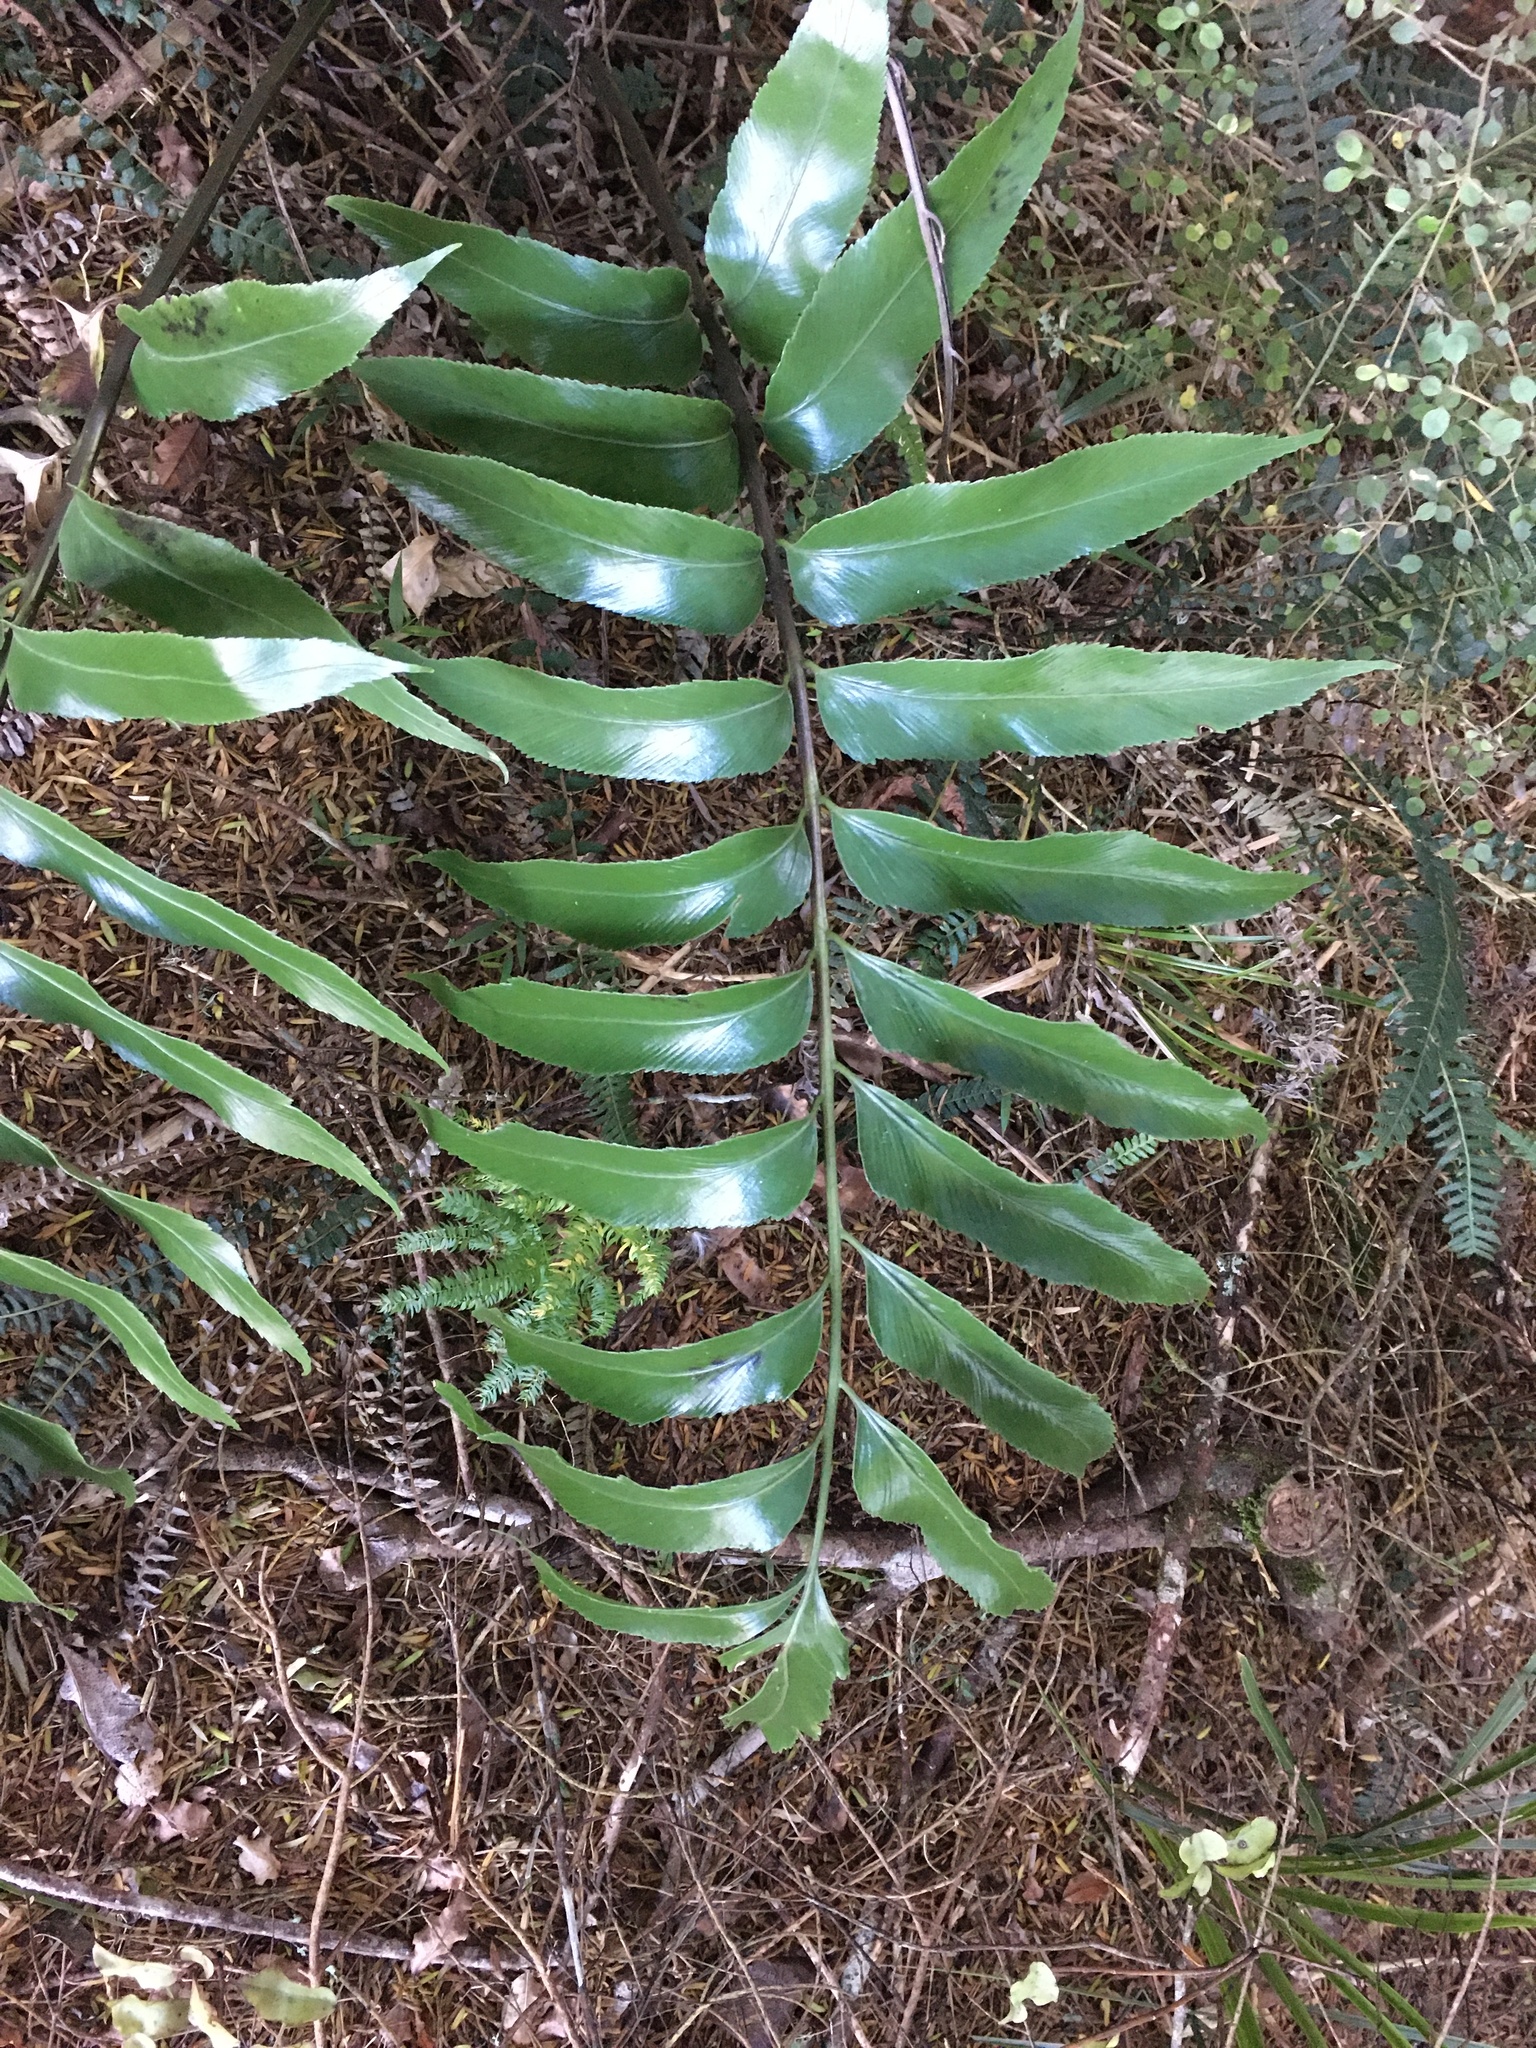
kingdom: Plantae
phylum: Tracheophyta
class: Polypodiopsida
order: Polypodiales
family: Aspleniaceae
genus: Asplenium
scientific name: Asplenium oblongifolium
